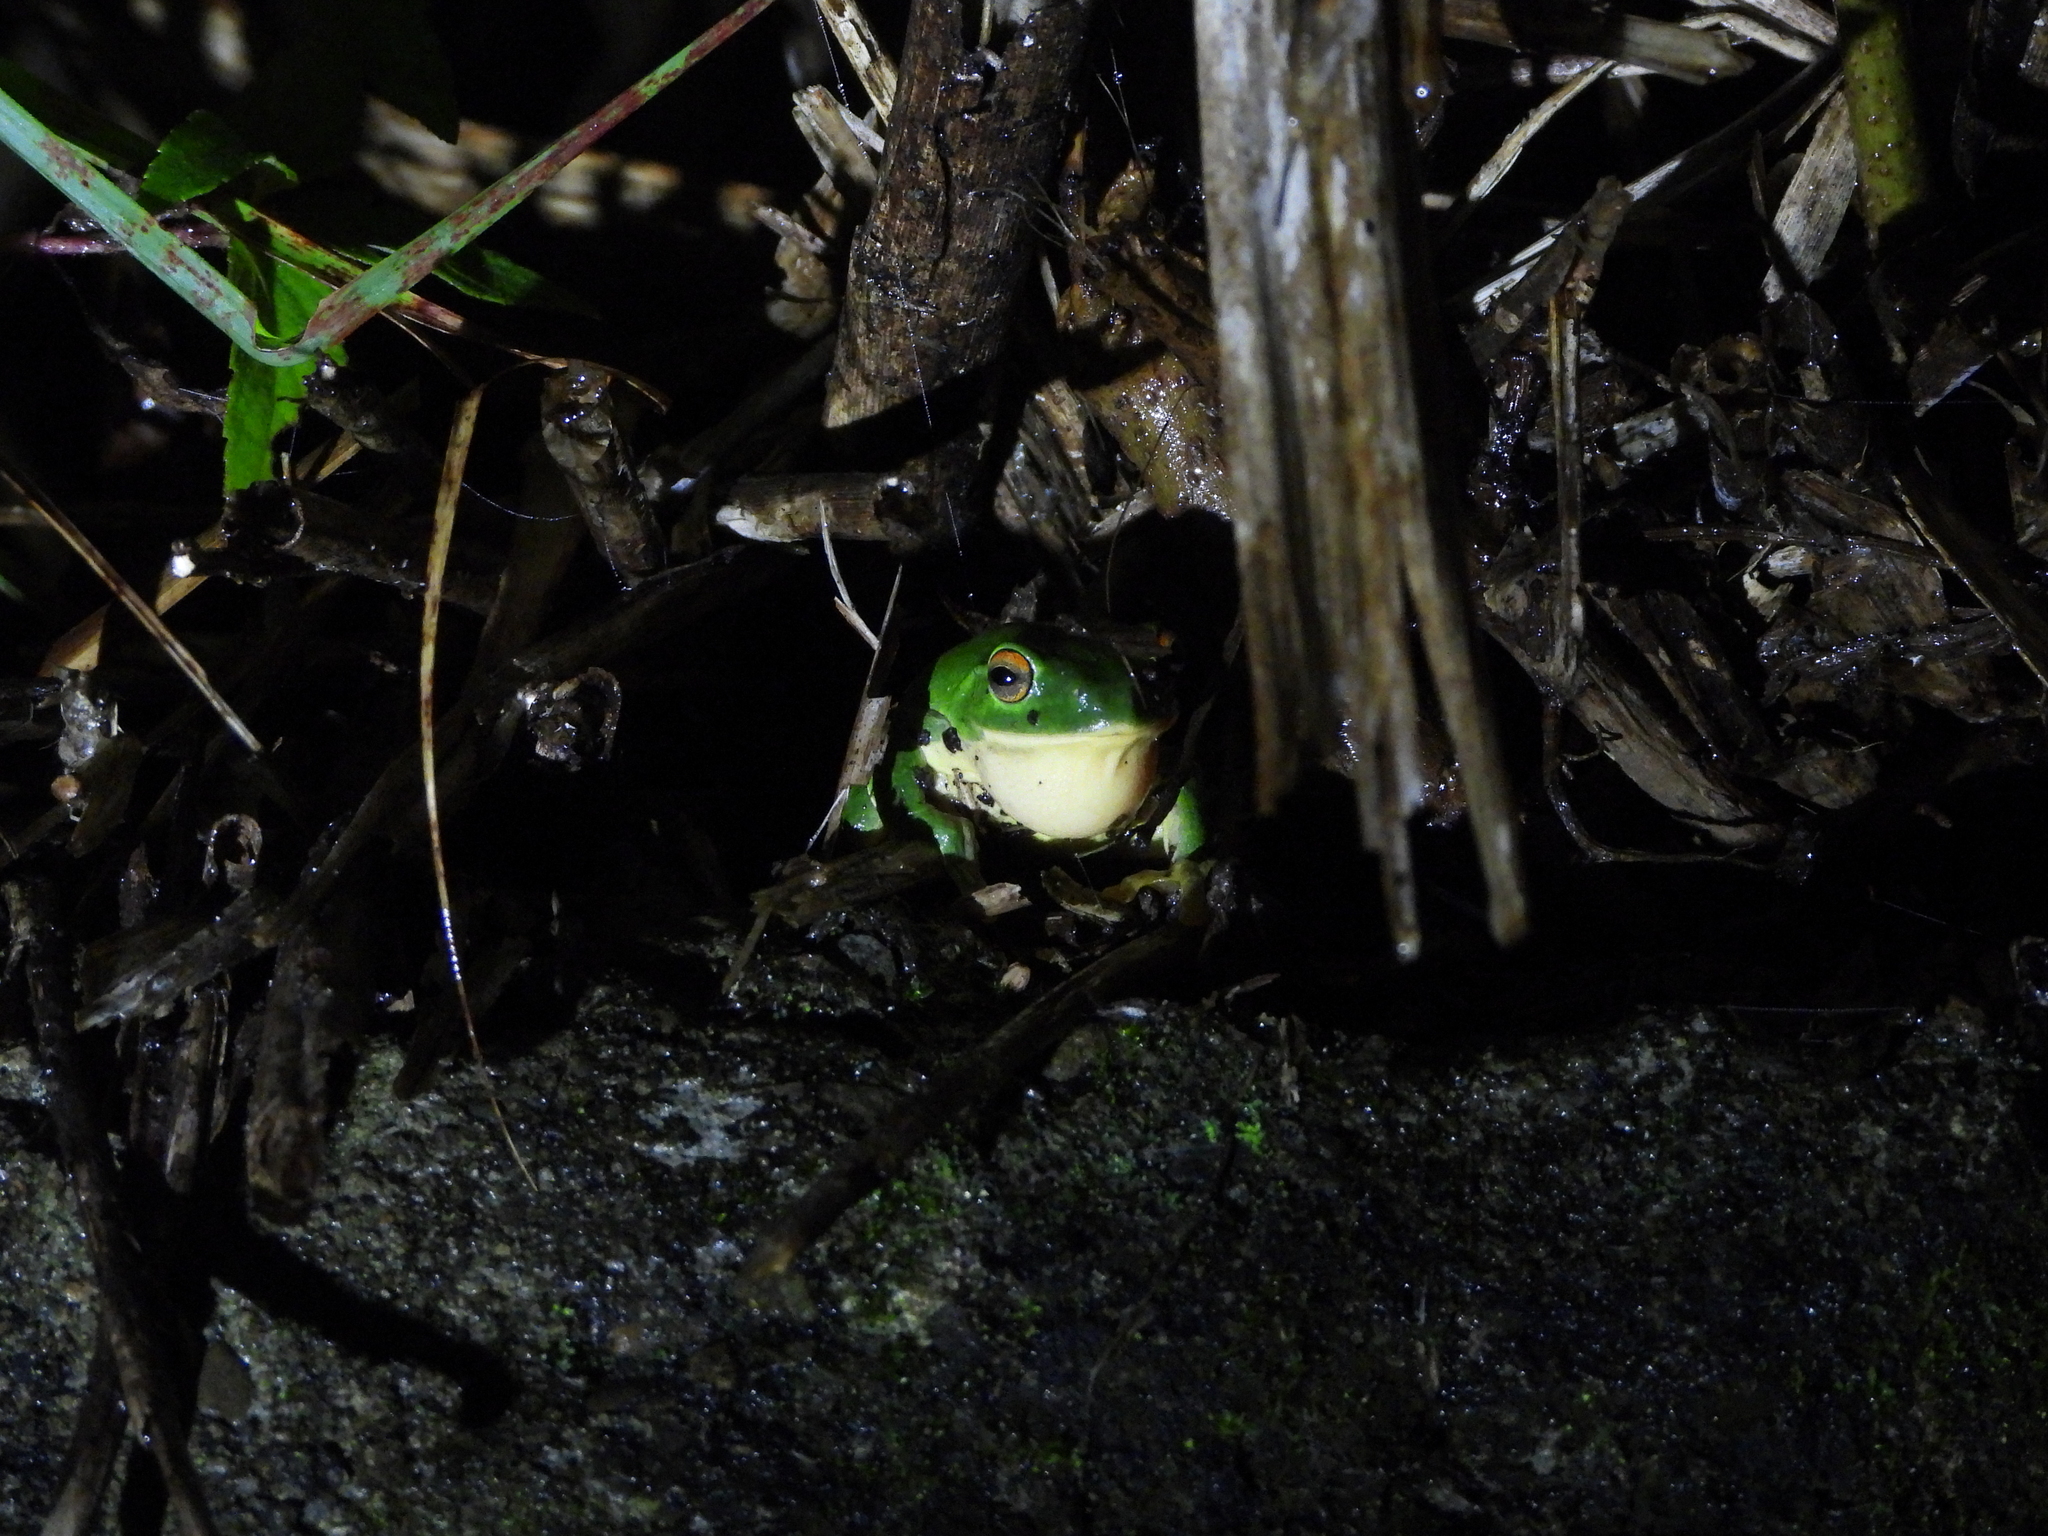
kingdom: Animalia
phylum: Chordata
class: Amphibia
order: Anura
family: Rhacophoridae
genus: Zhangixalus
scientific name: Zhangixalus moltrechti
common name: Moltrecht's treefrog
